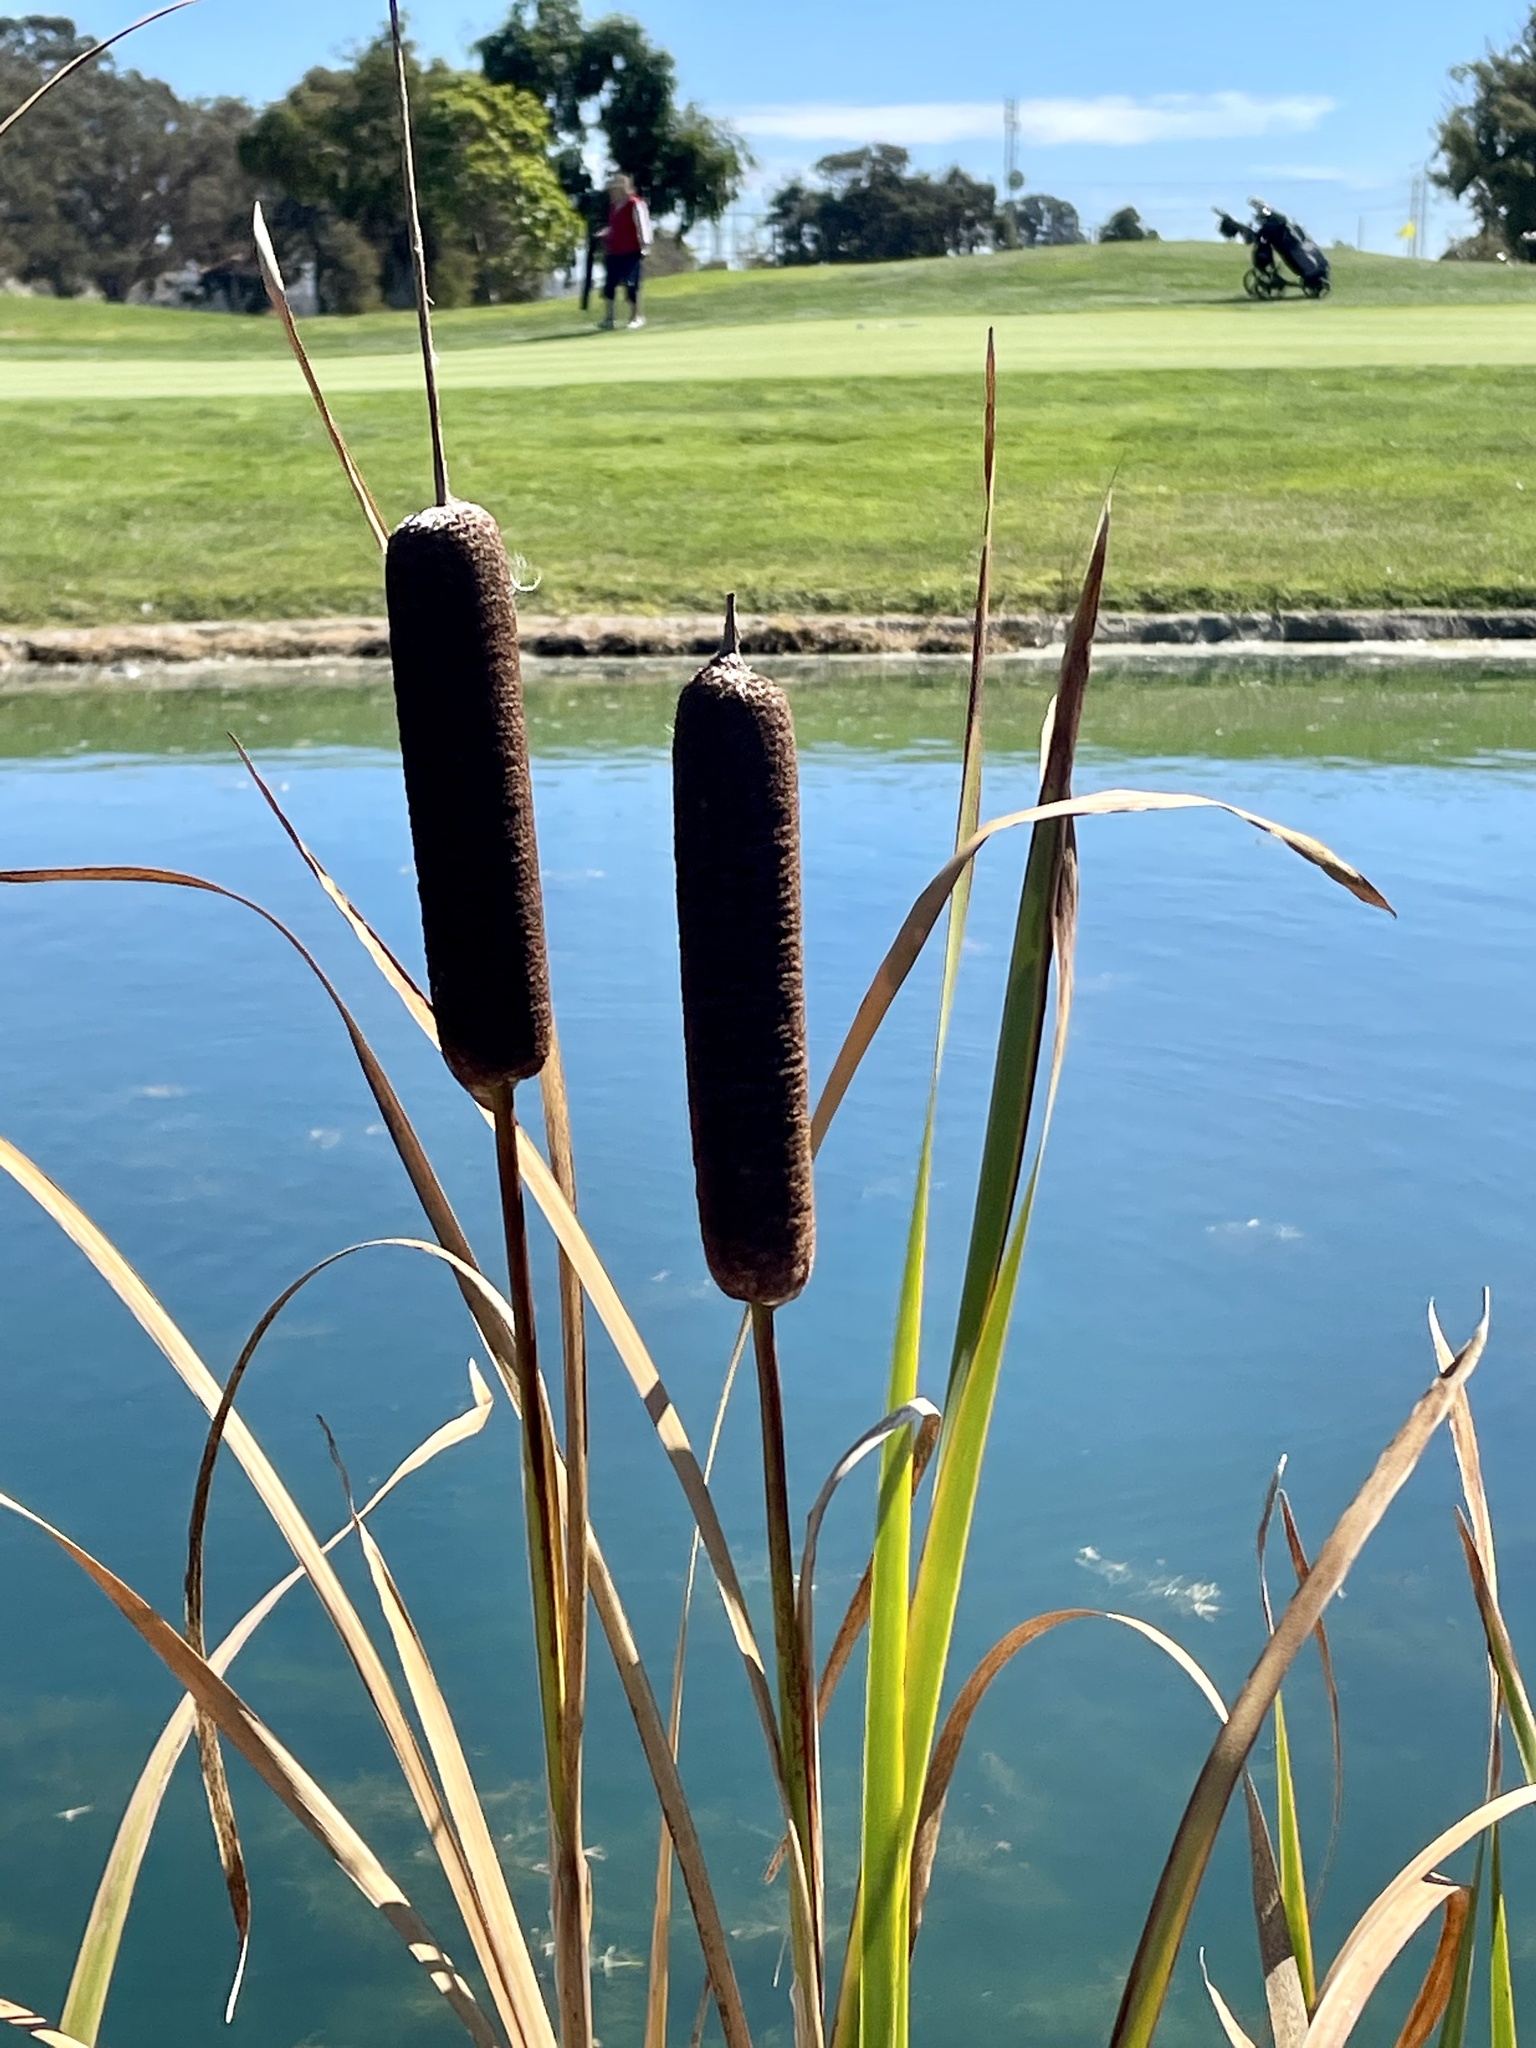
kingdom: Plantae
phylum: Tracheophyta
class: Liliopsida
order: Poales
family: Typhaceae
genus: Typha
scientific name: Typha latifolia
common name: Broadleaf cattail
